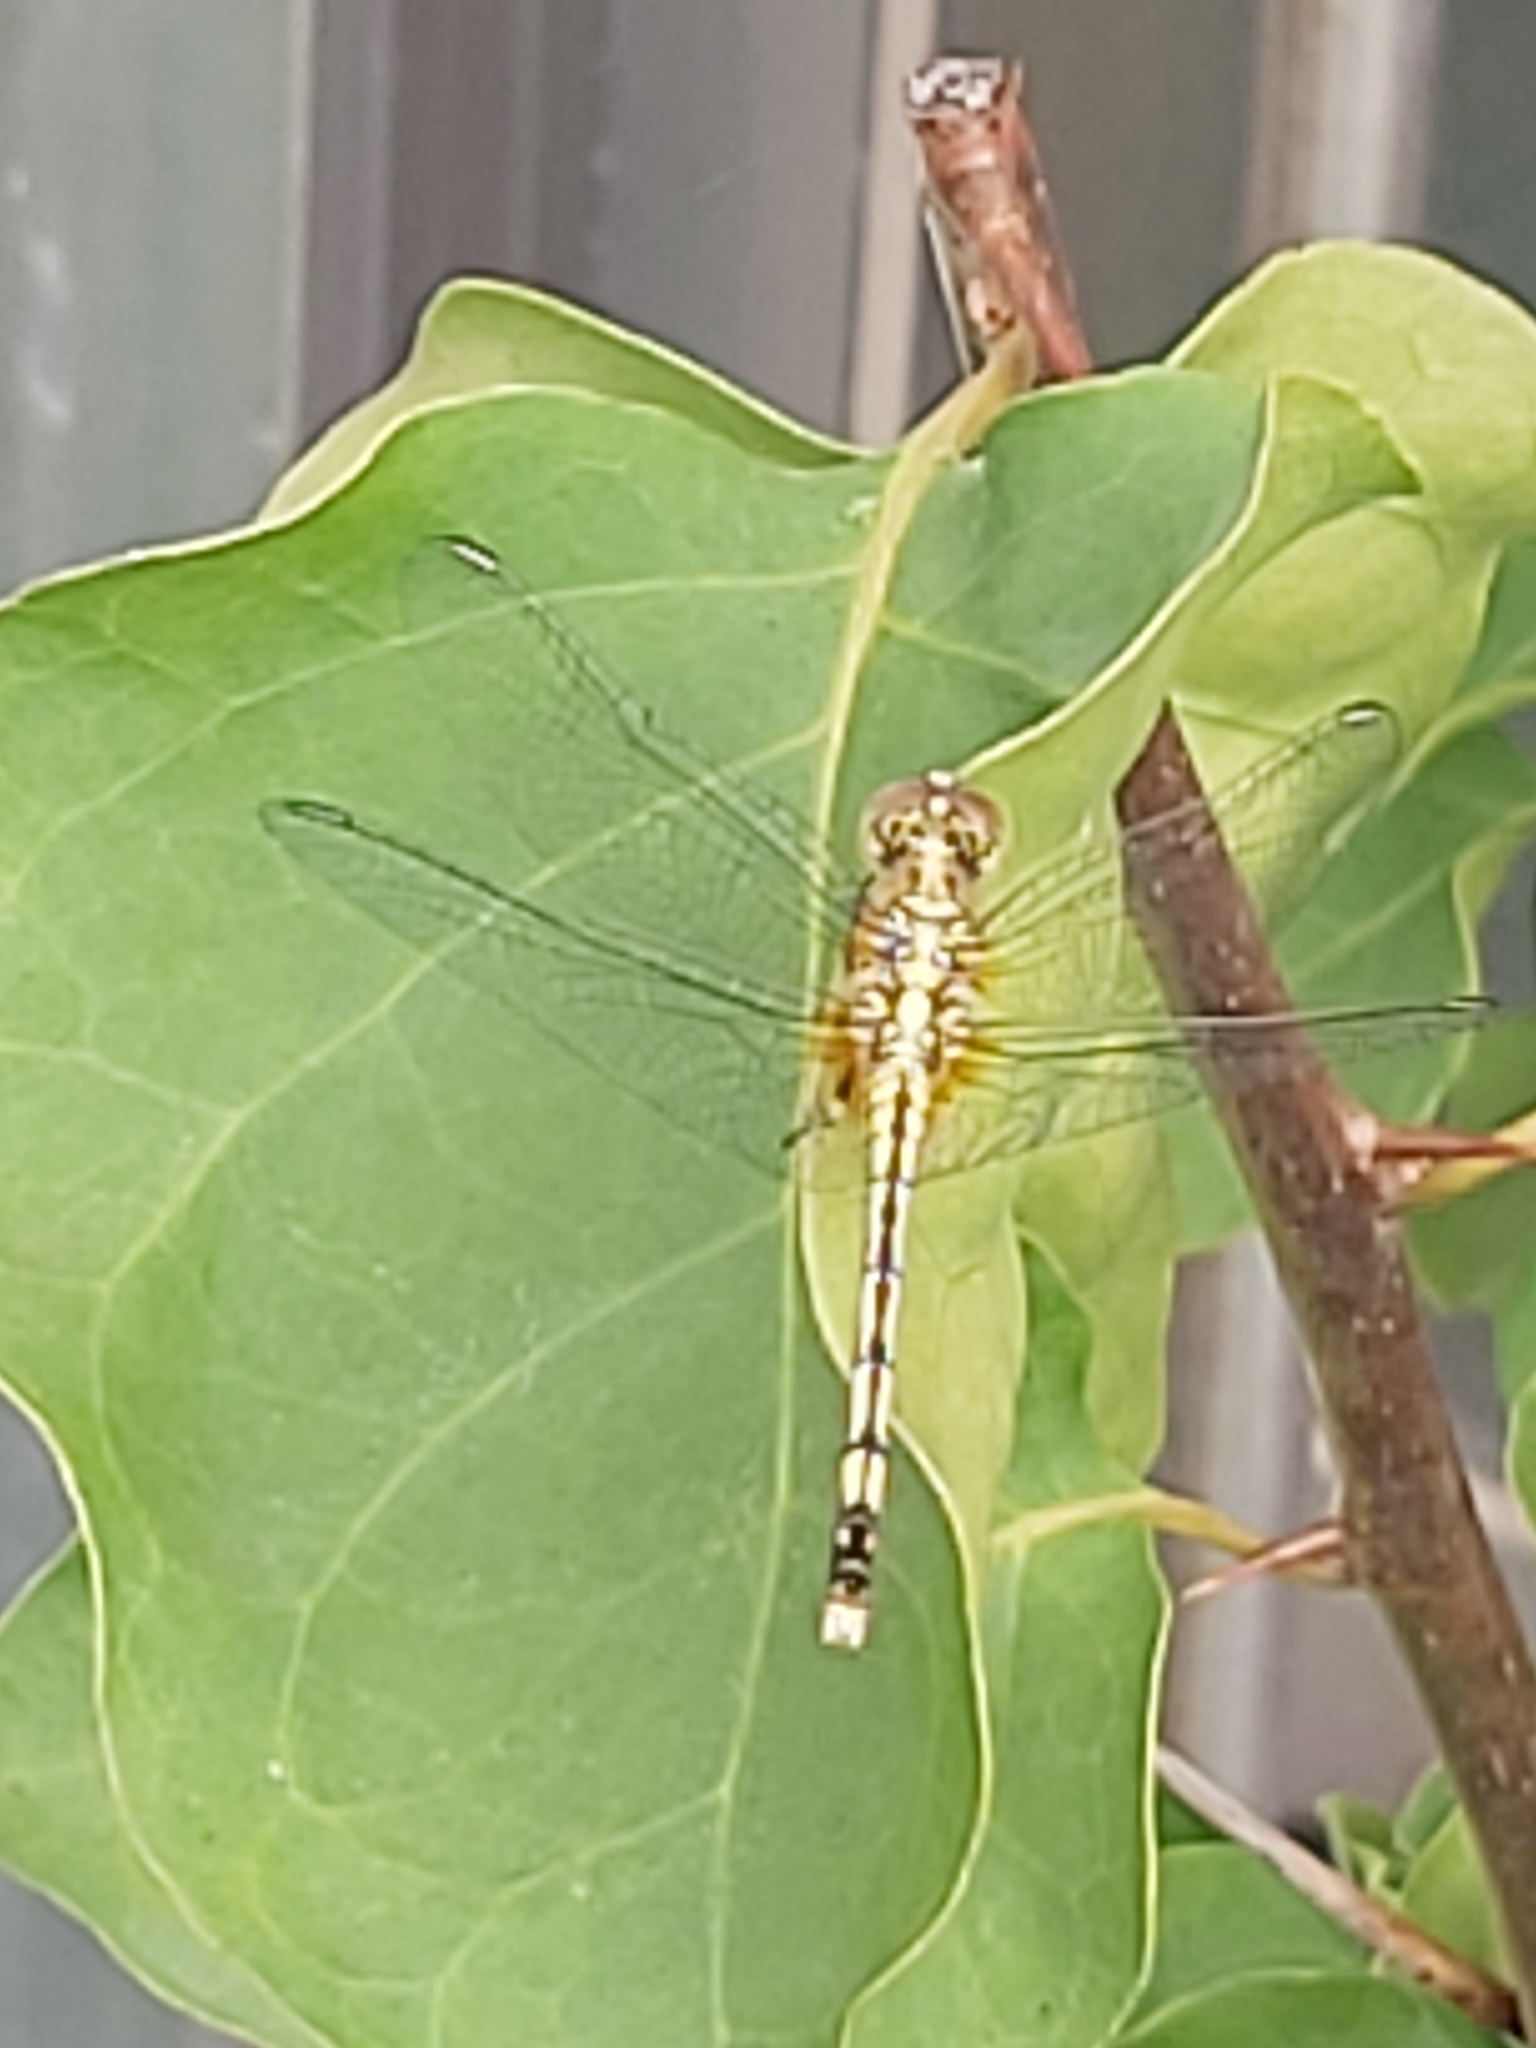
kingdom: Animalia
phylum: Arthropoda
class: Insecta
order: Odonata
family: Libellulidae
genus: Diplacodes
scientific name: Diplacodes trivialis
